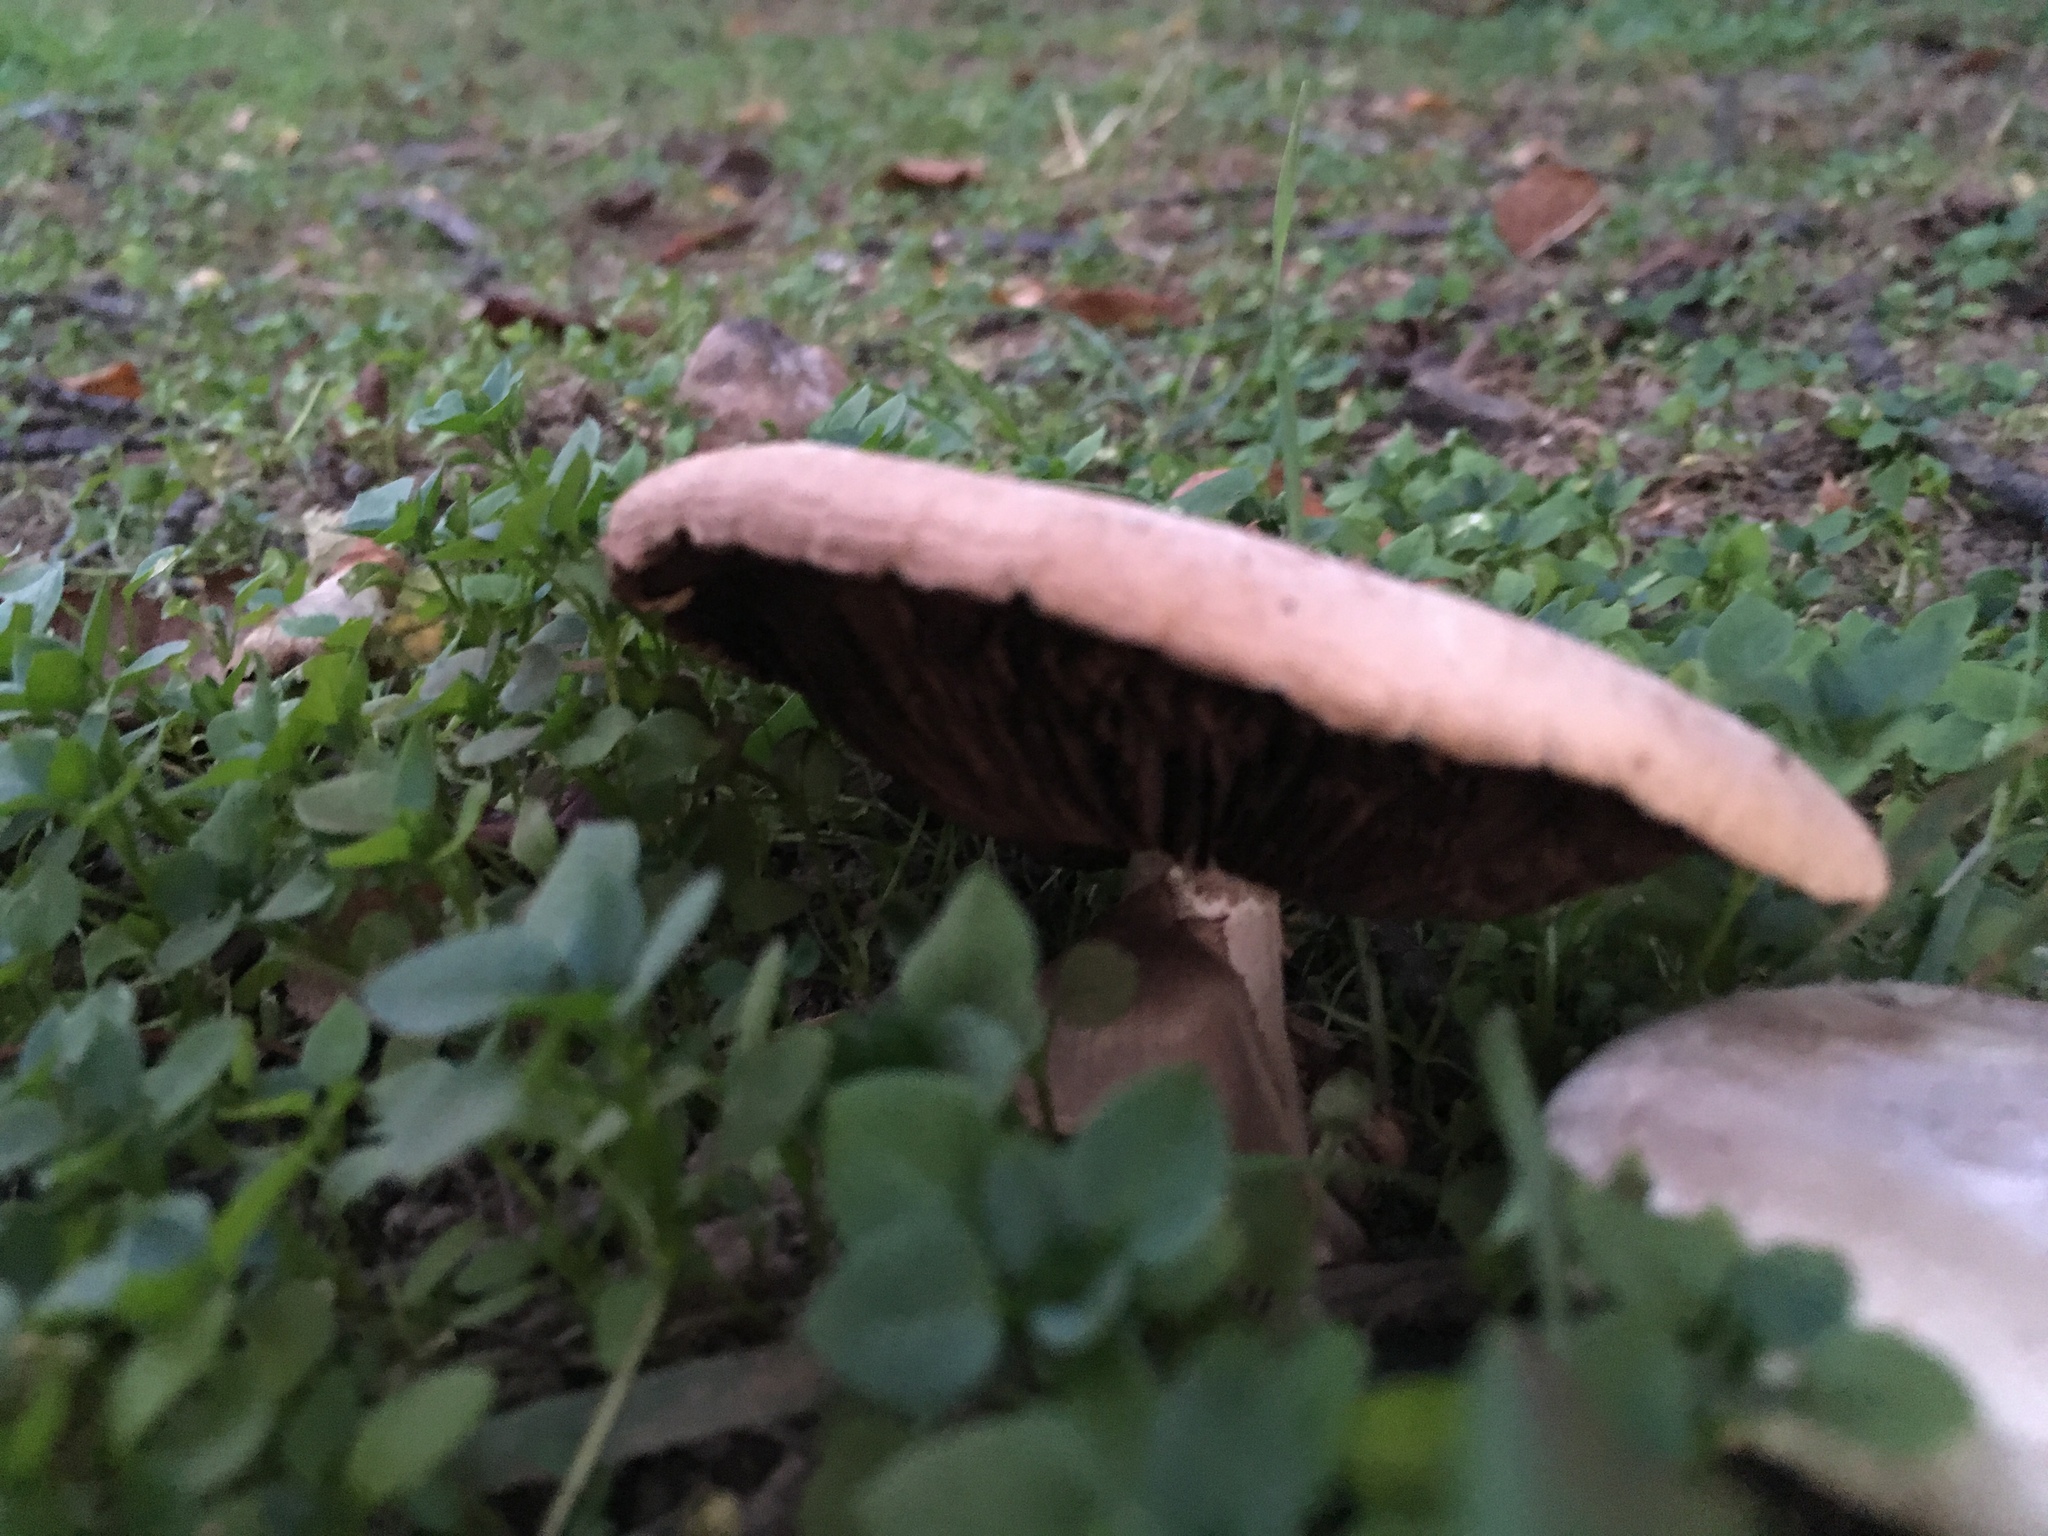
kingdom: Fungi
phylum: Basidiomycota
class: Agaricomycetes
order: Agaricales
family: Agaricaceae
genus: Agaricus
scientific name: Agaricus campestris
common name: Field mushroom
